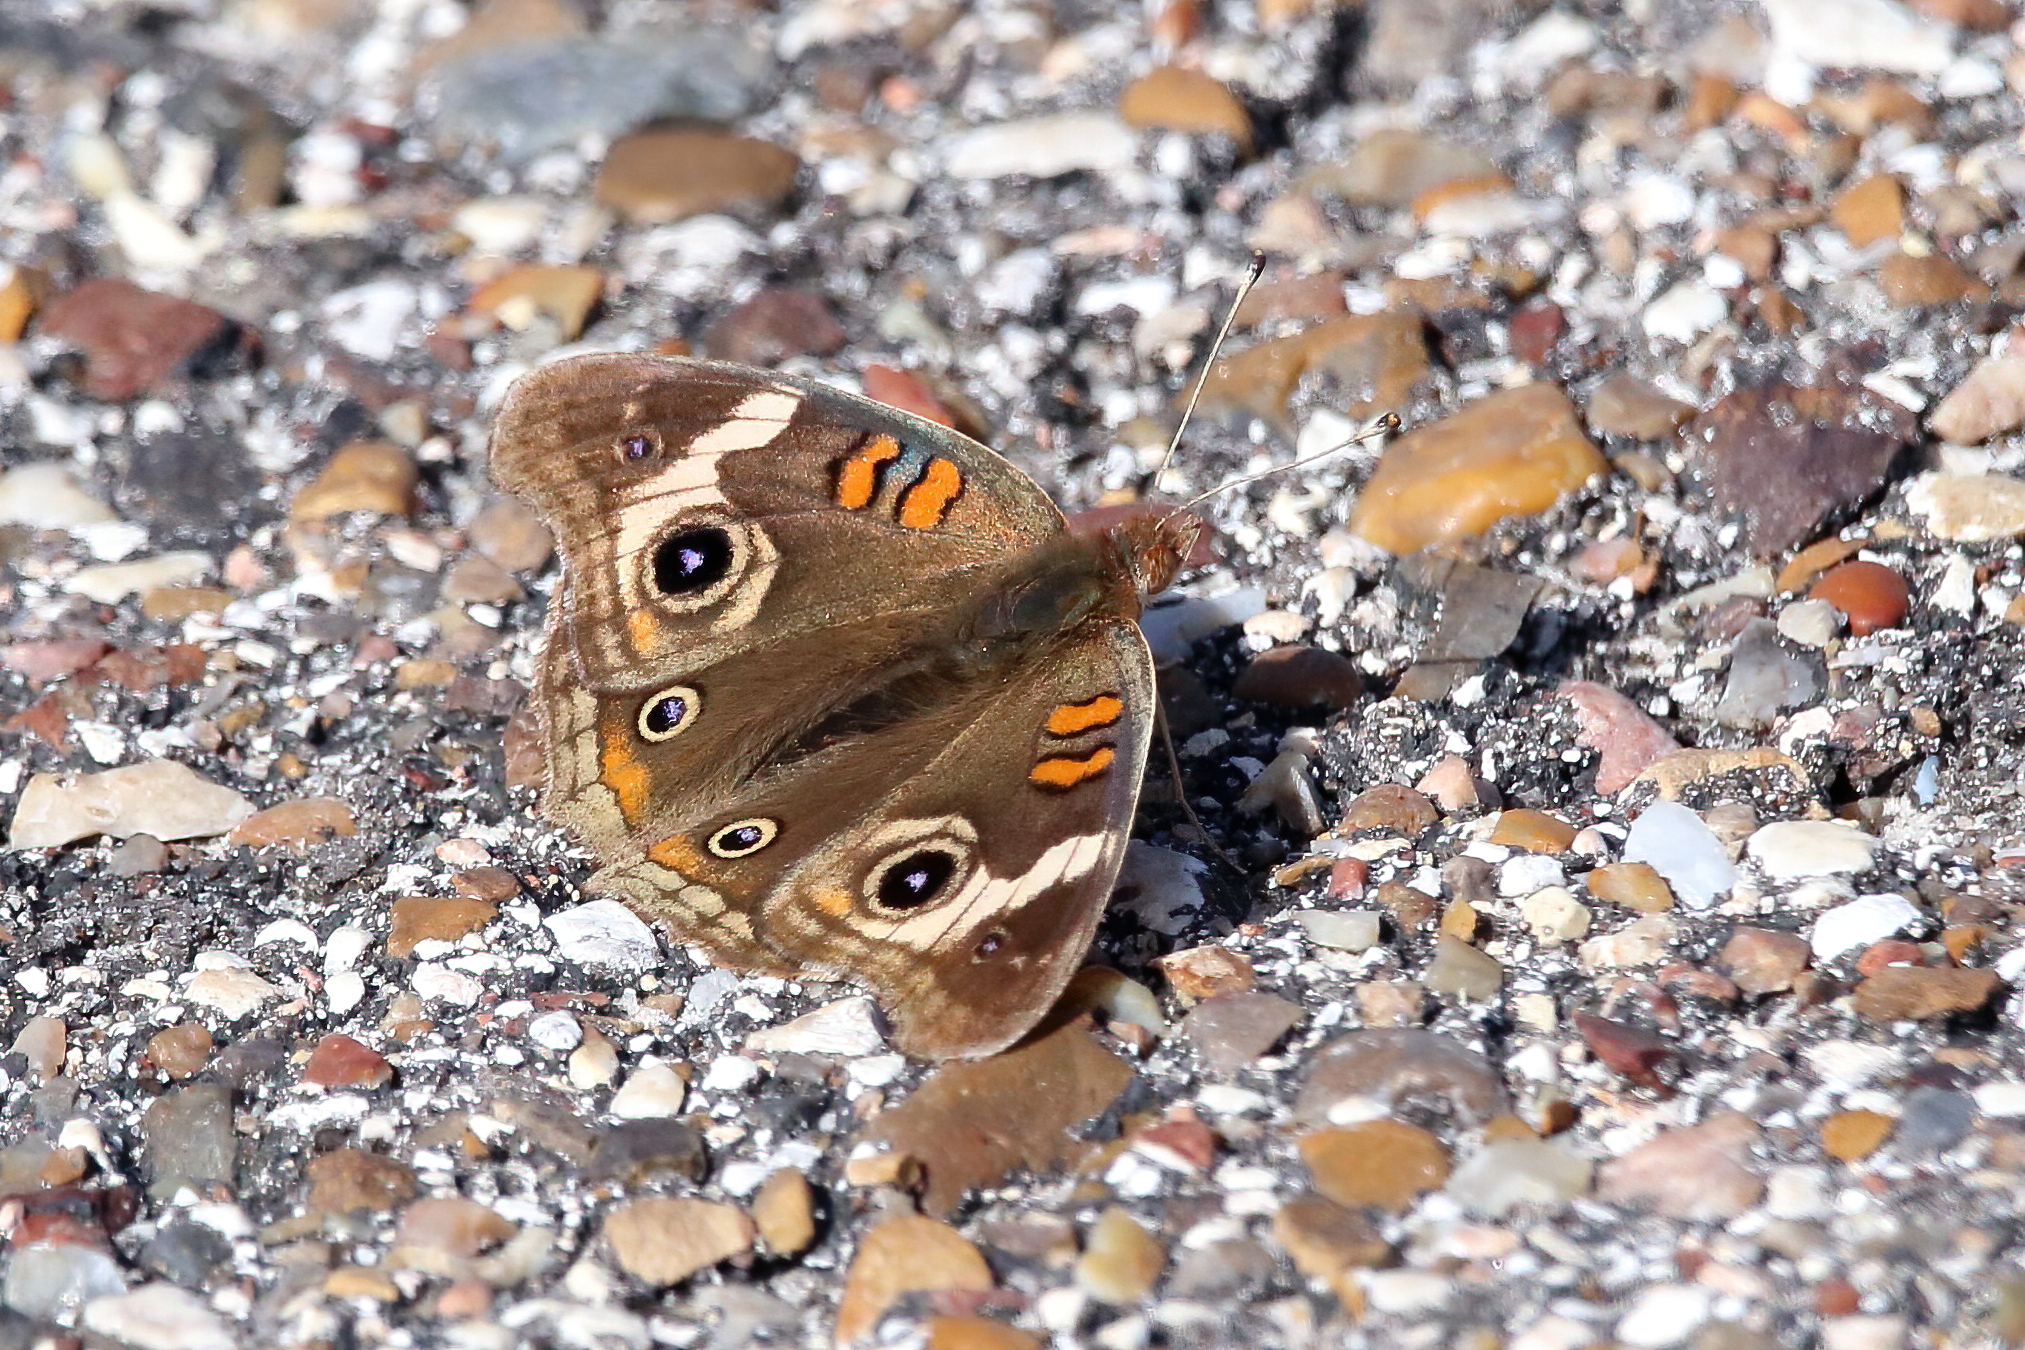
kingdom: Animalia
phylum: Arthropoda
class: Insecta
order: Lepidoptera
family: Nymphalidae
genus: Junonia
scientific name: Junonia coenia
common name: Common buckeye
